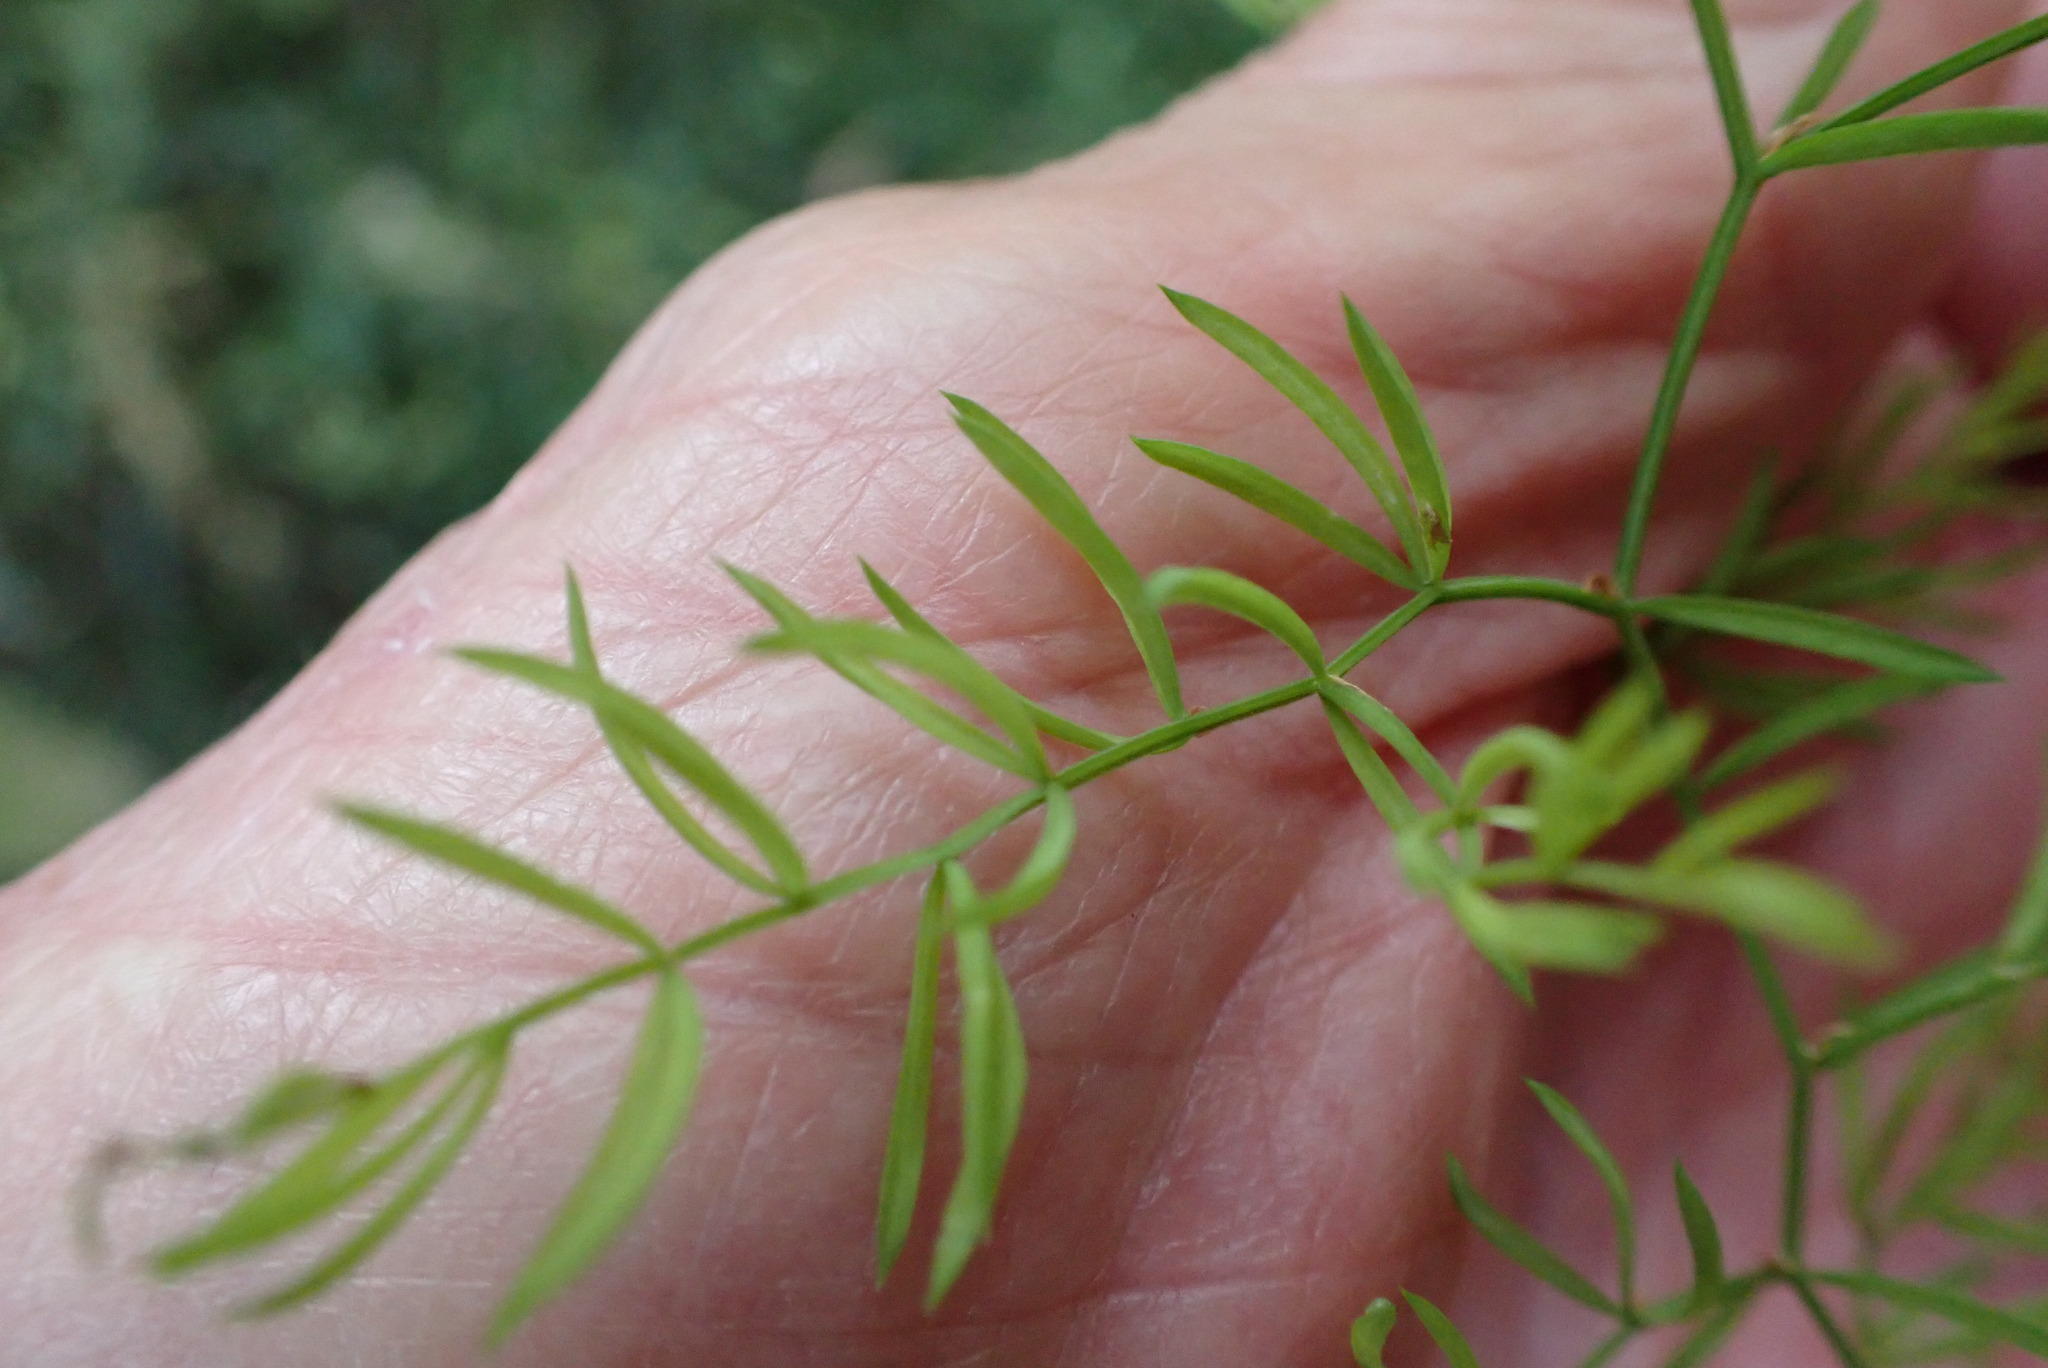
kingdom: Plantae
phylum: Tracheophyta
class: Liliopsida
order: Asparagales
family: Asparagaceae
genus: Asparagus
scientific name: Asparagus ramosissimus
